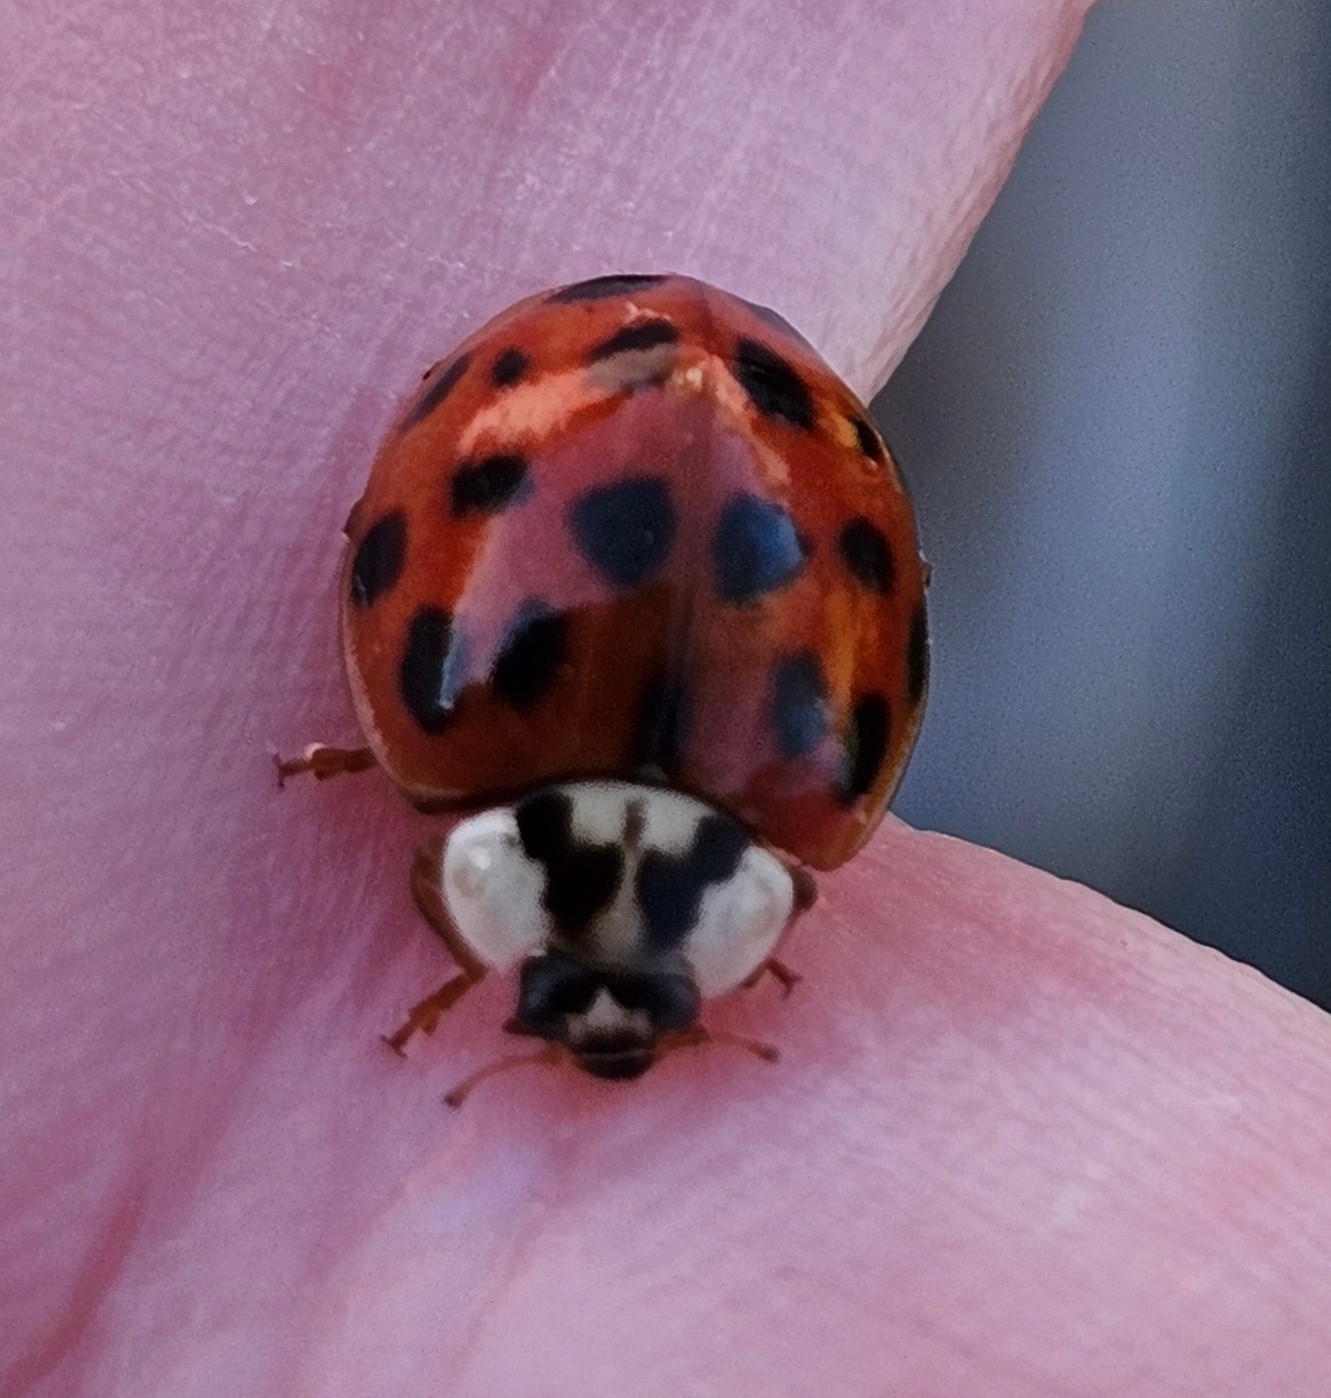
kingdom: Animalia
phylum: Arthropoda
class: Insecta
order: Coleoptera
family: Coccinellidae
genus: Harmonia
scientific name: Harmonia axyridis
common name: Harlequin ladybird
